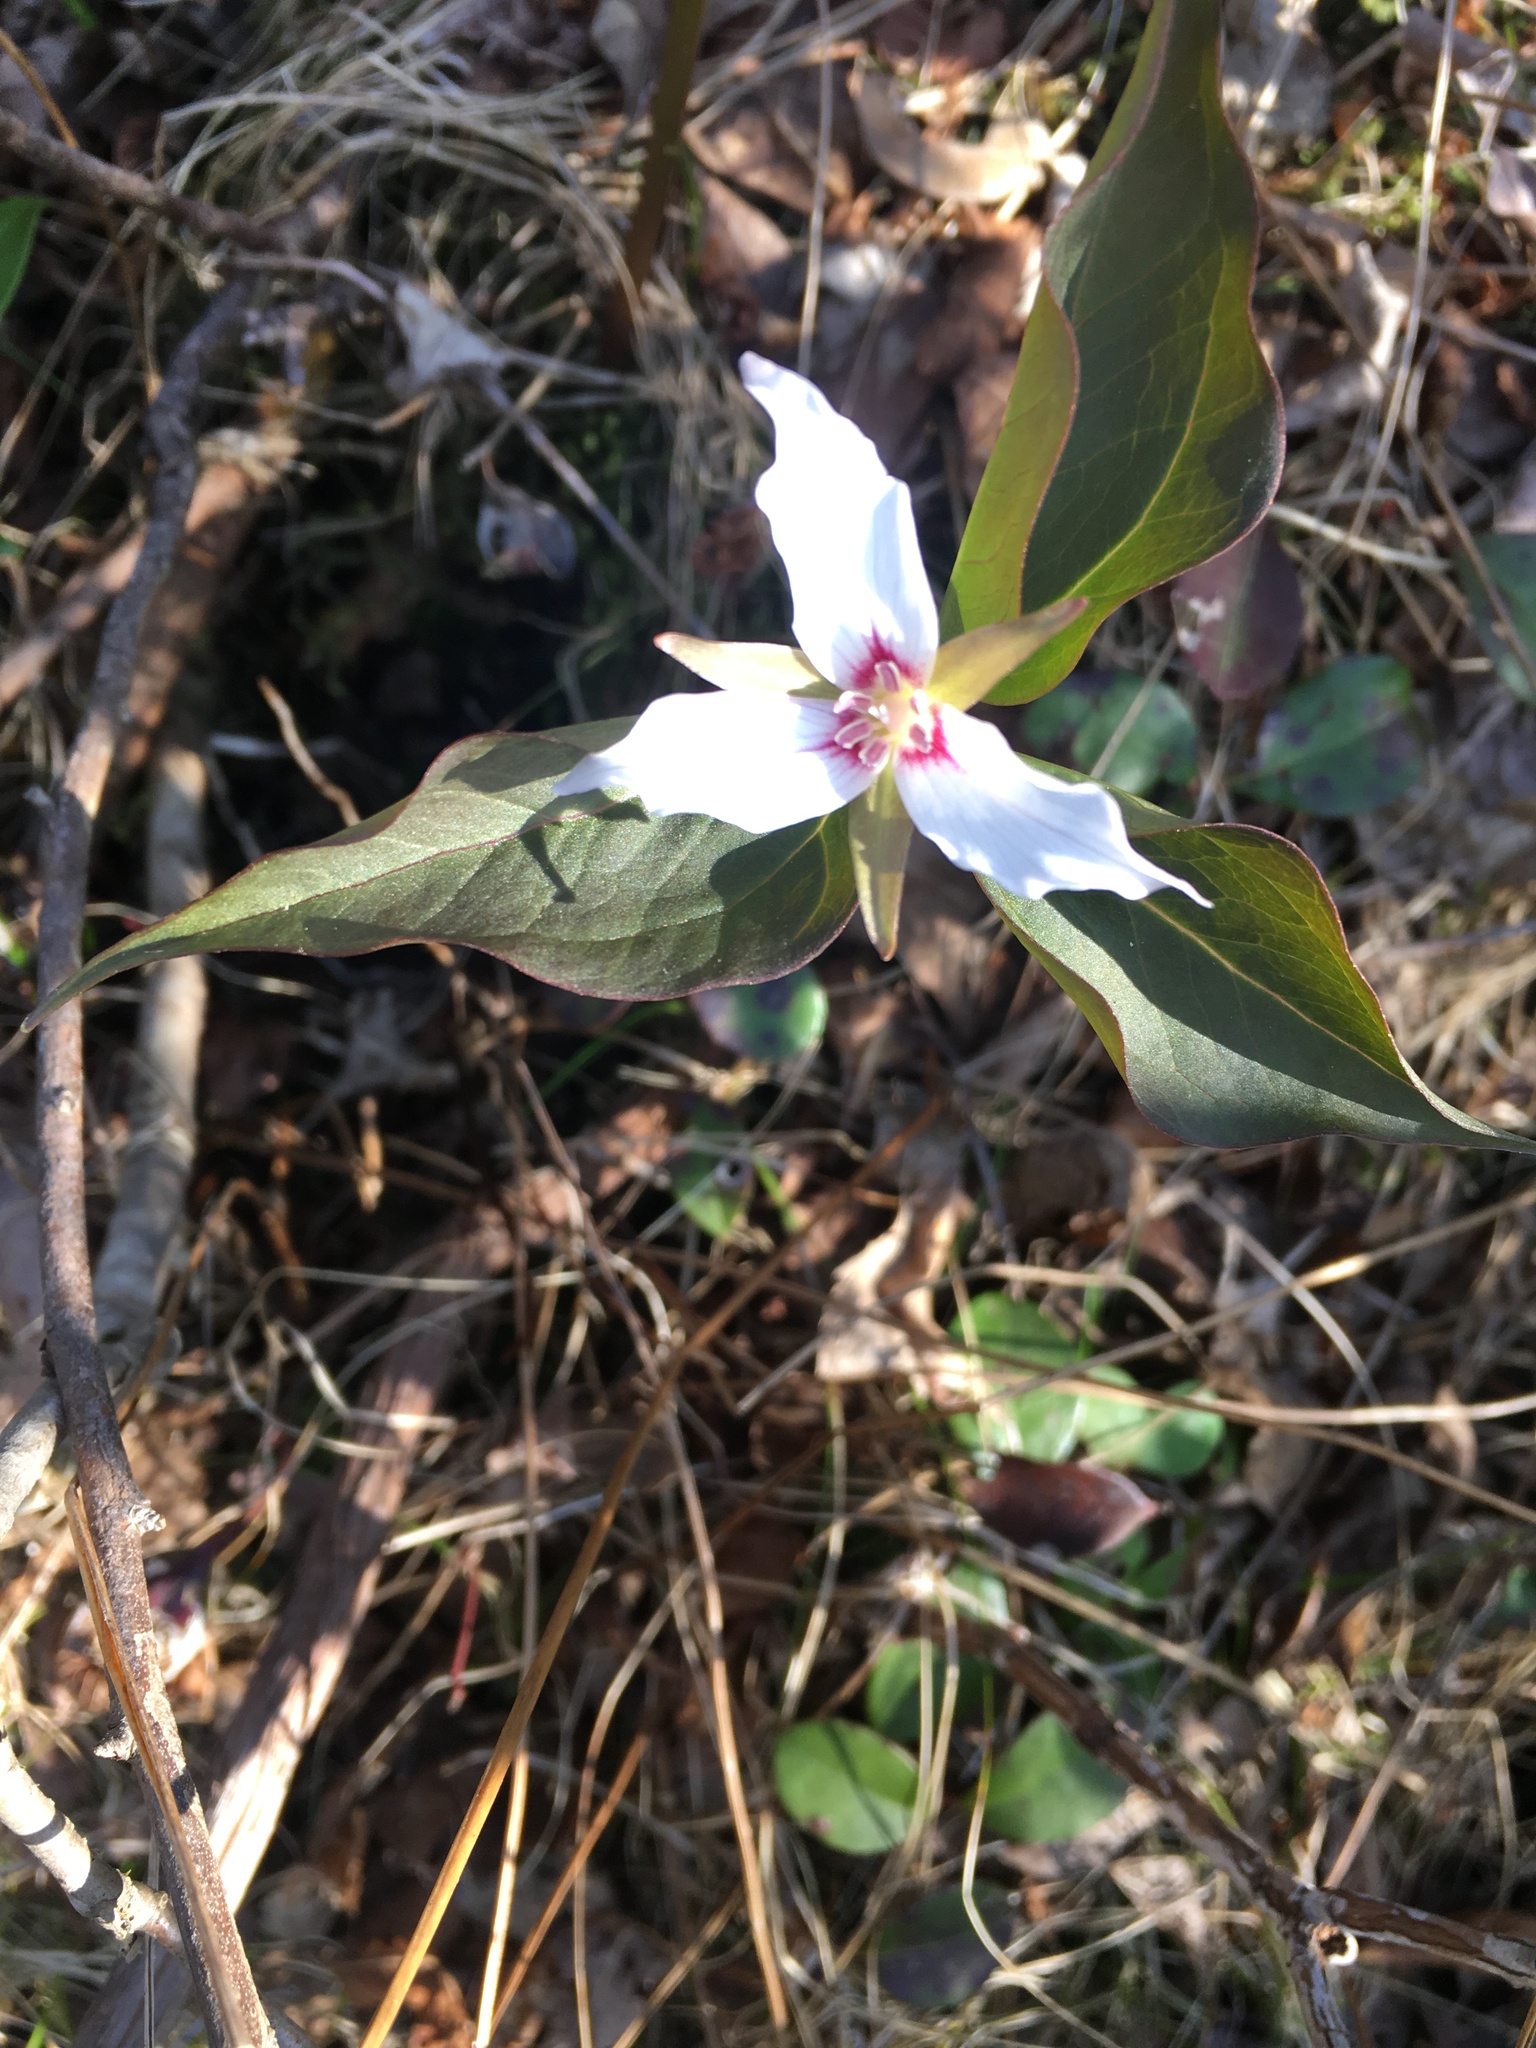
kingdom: Plantae
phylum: Tracheophyta
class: Liliopsida
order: Liliales
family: Melanthiaceae
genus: Trillium
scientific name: Trillium undulatum
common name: Paint trillium
